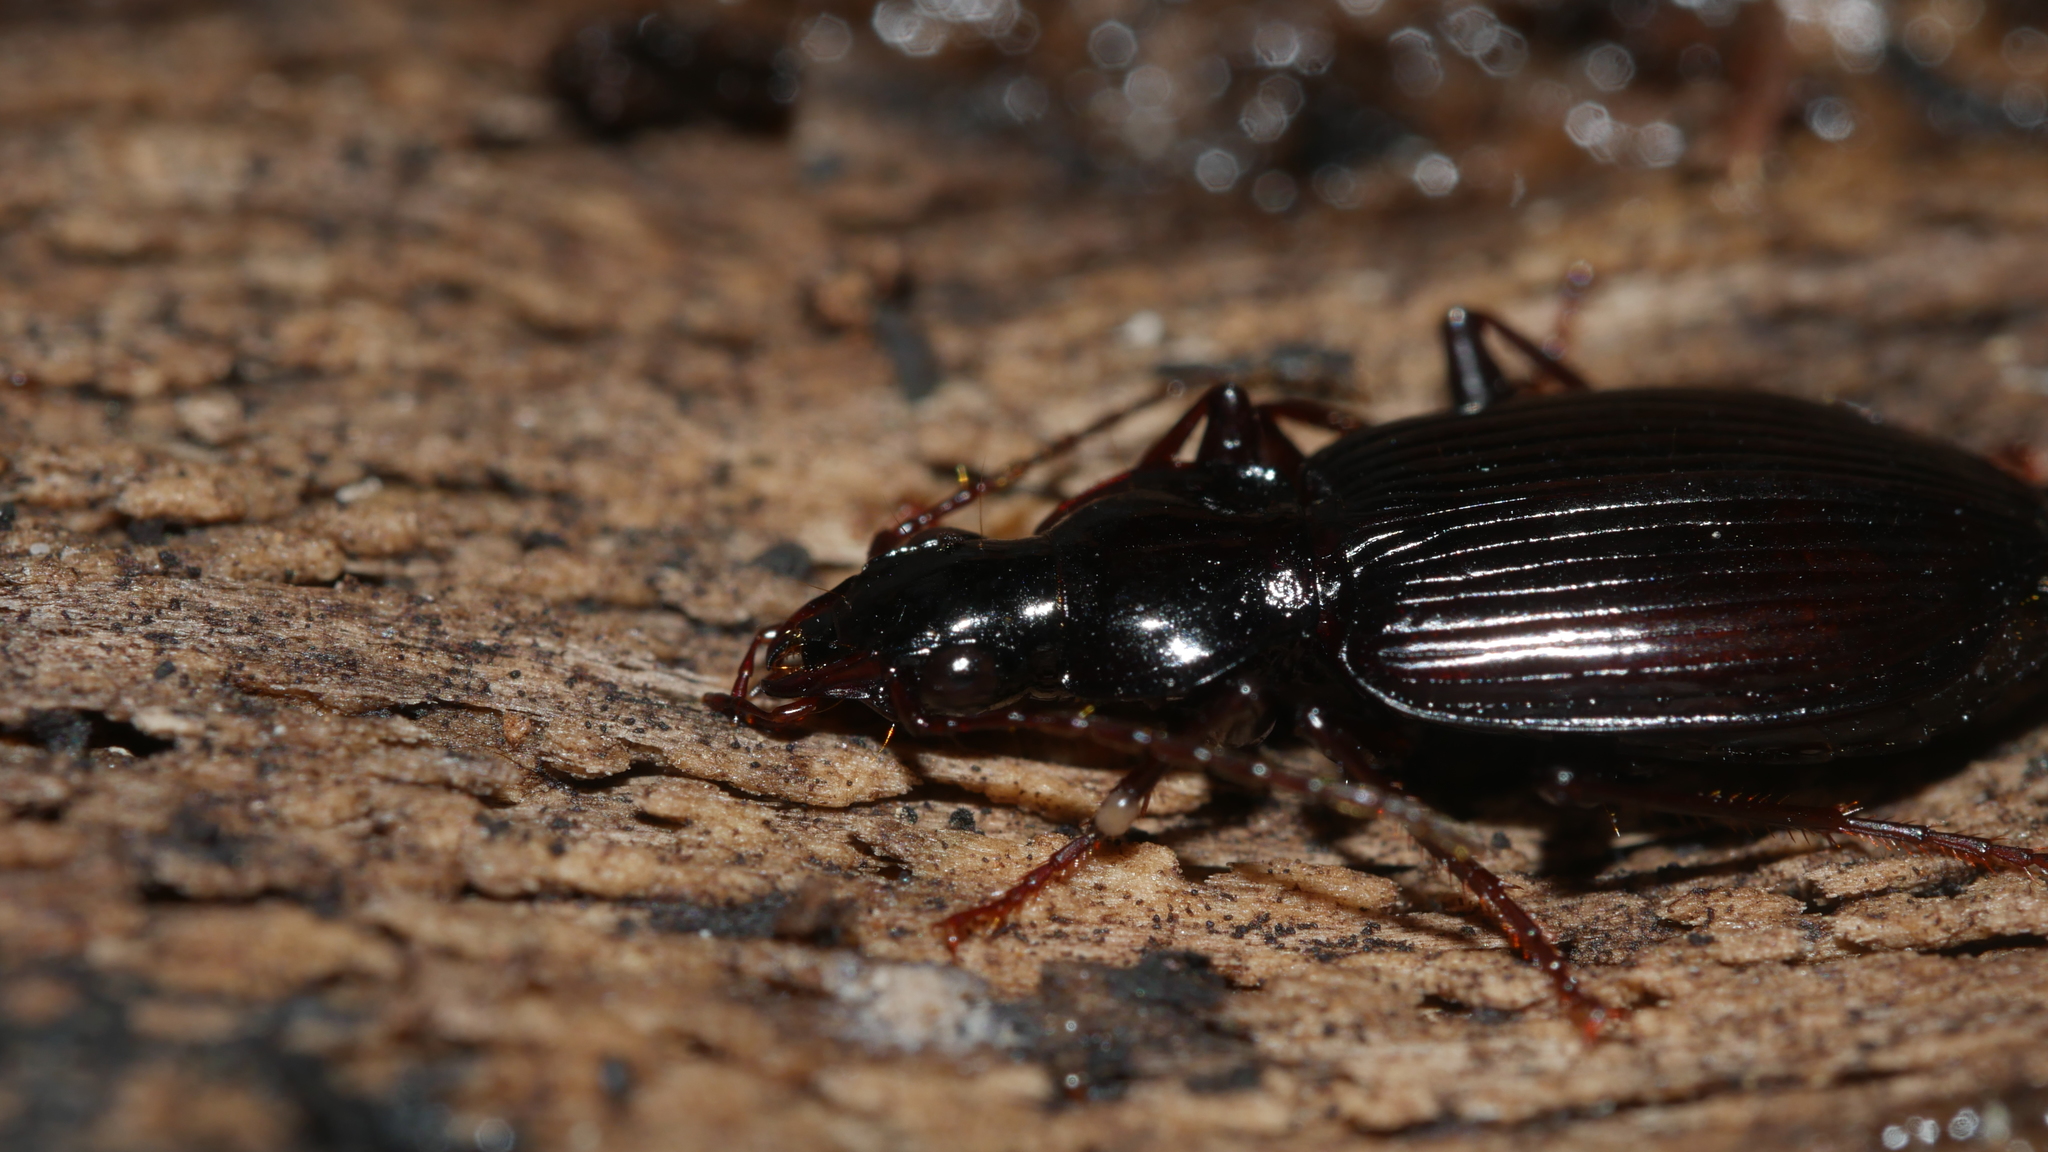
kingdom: Animalia
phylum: Arthropoda
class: Insecta
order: Coleoptera
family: Carabidae
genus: Platynus
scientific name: Platynus decentis
